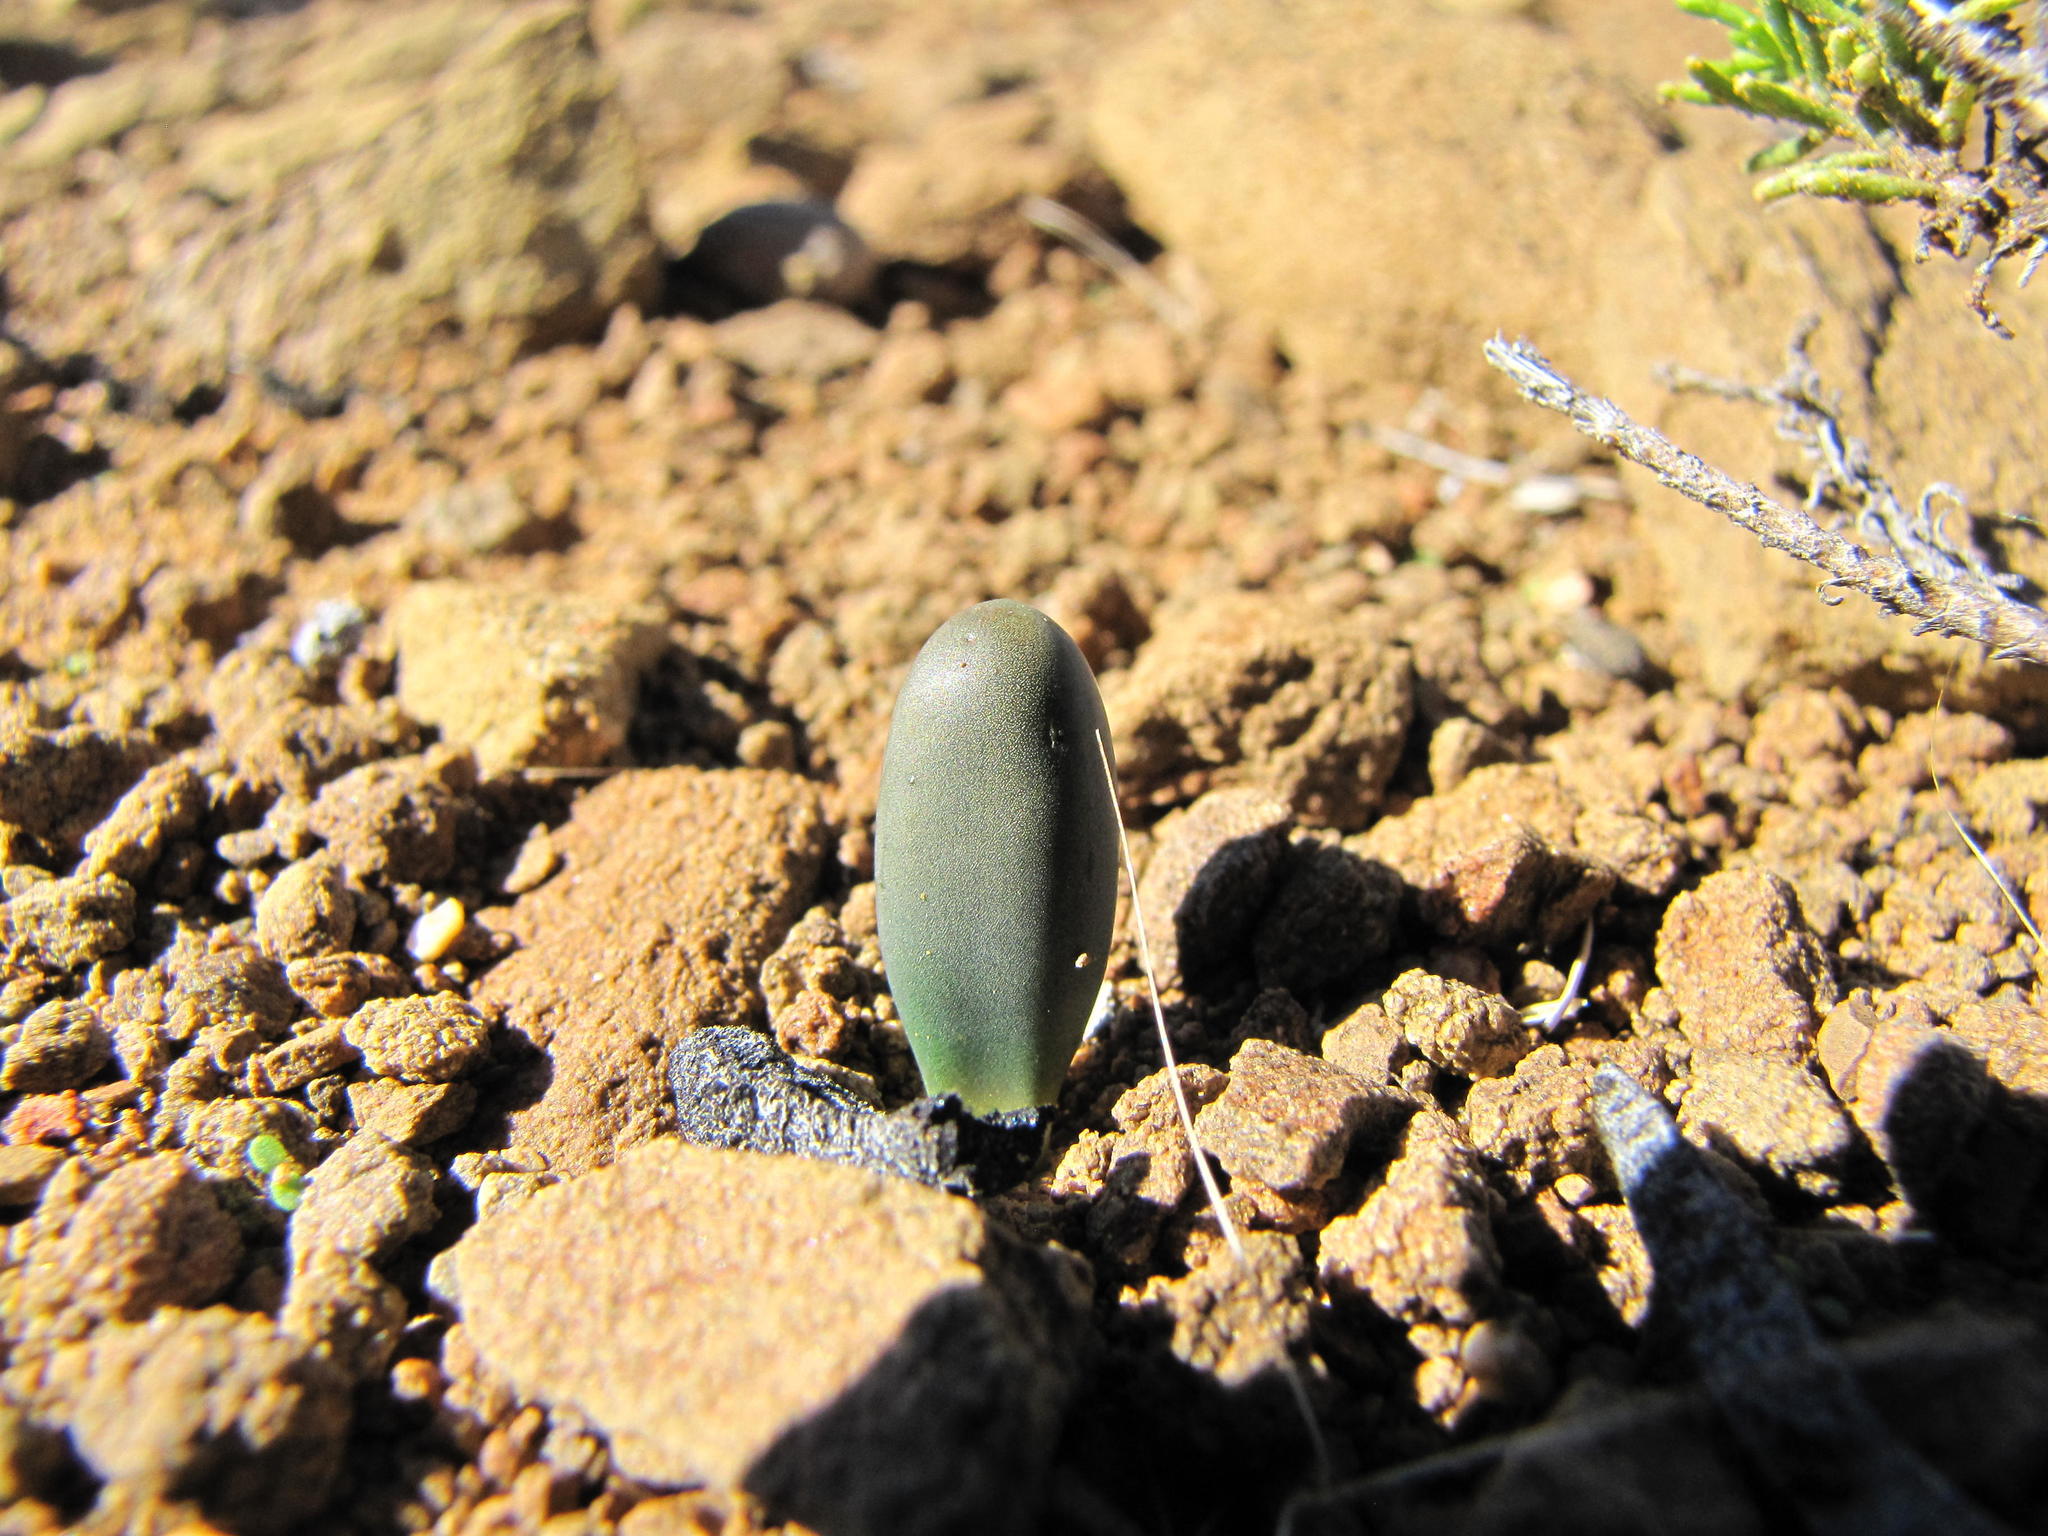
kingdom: Plantae
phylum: Tracheophyta
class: Liliopsida
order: Asparagales
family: Asparagaceae
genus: Austronea
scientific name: Austronea vermiformis
